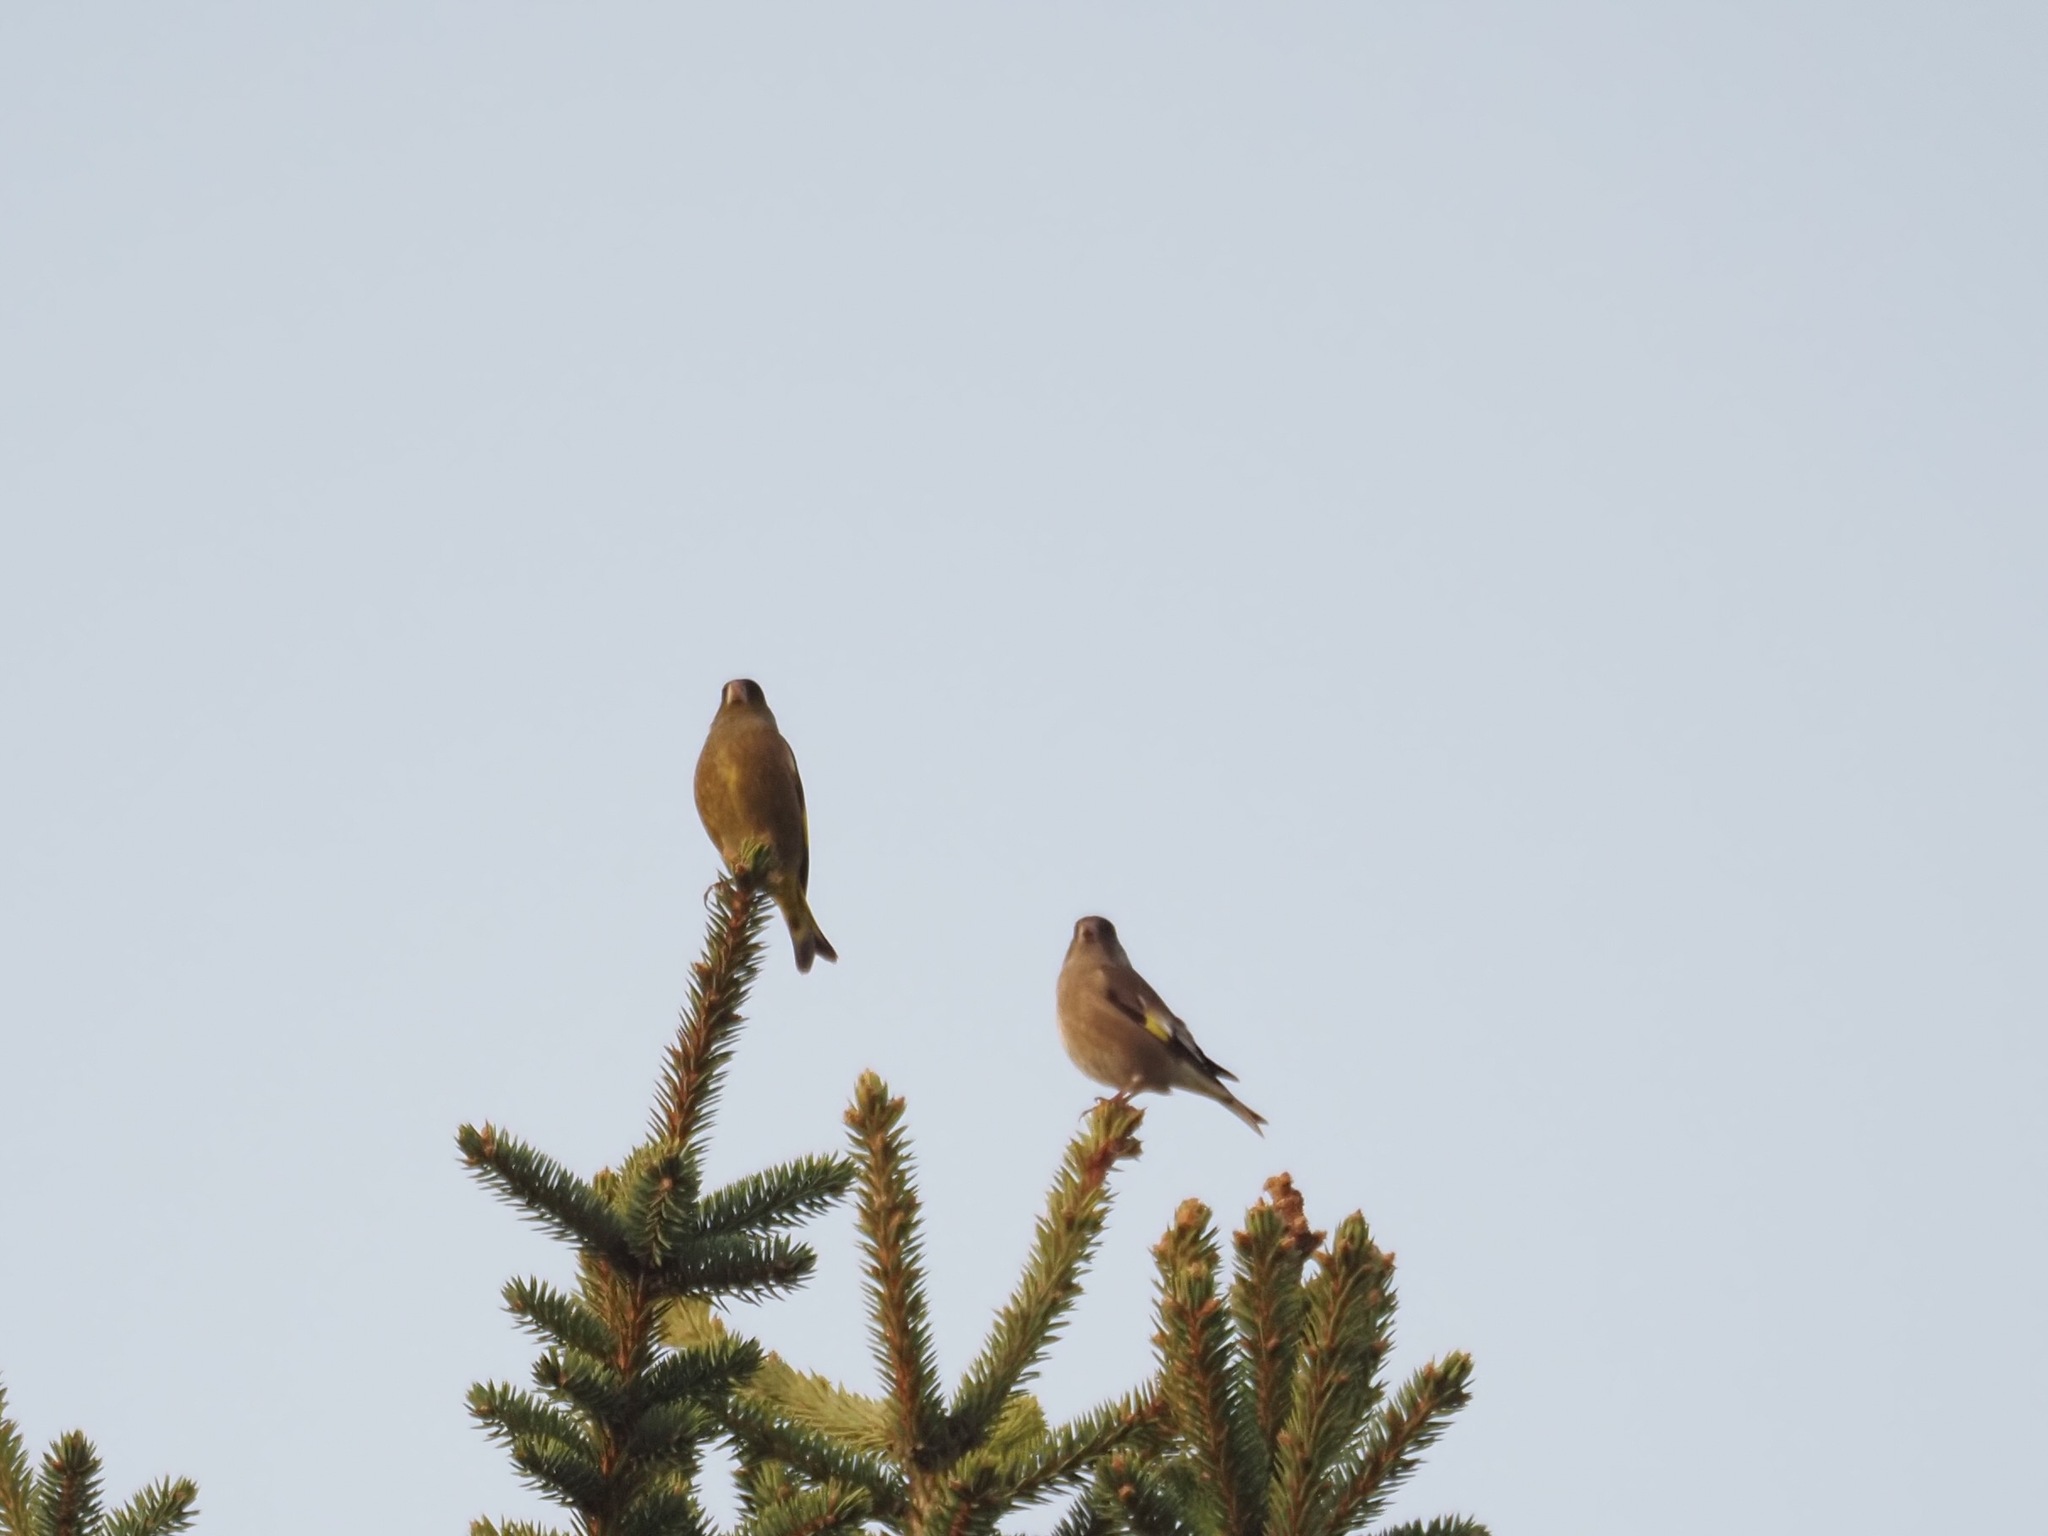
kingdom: Plantae
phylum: Tracheophyta
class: Liliopsida
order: Poales
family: Poaceae
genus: Chloris
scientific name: Chloris sinica
